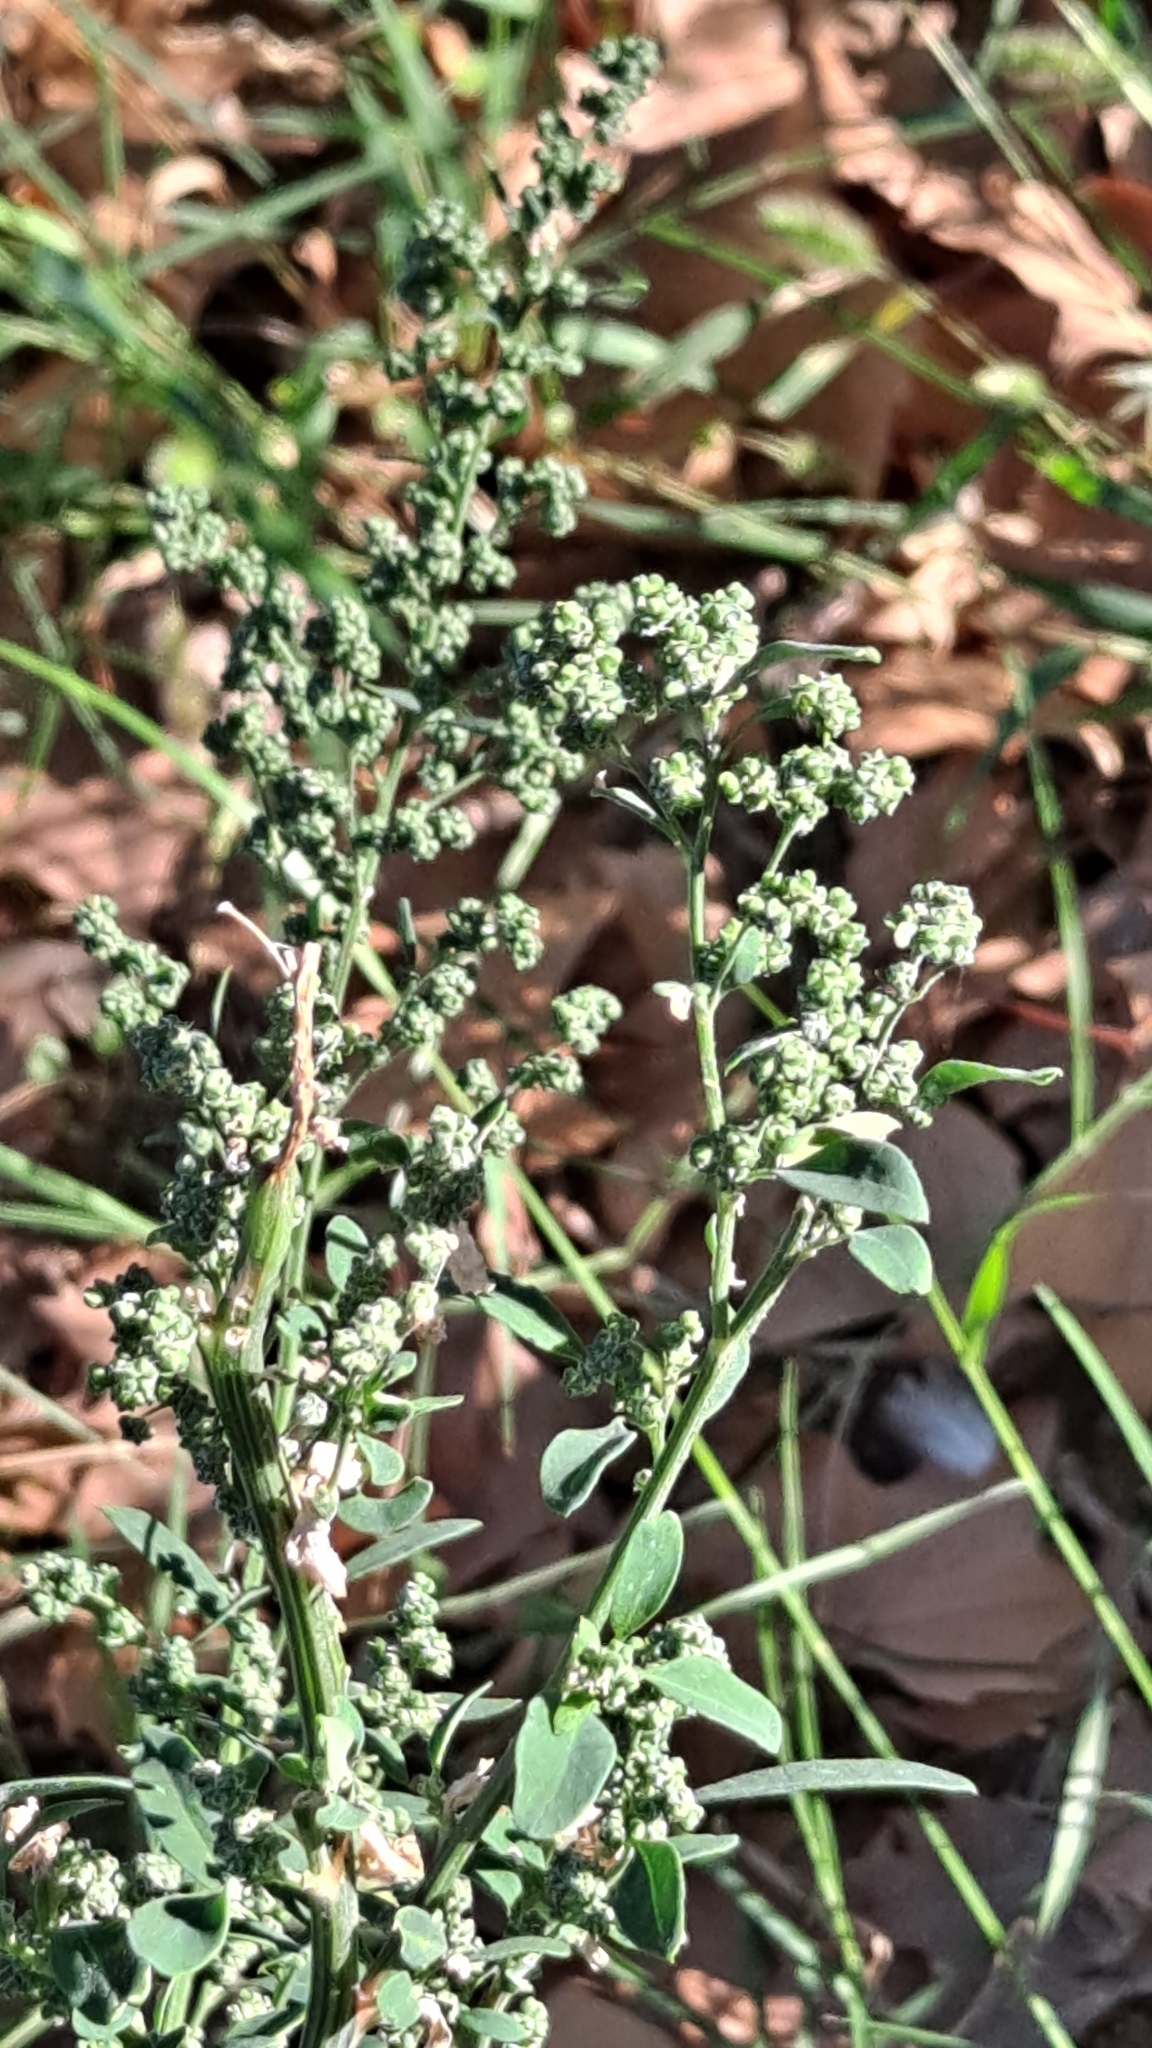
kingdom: Plantae
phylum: Tracheophyta
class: Magnoliopsida
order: Caryophyllales
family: Amaranthaceae
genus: Chenopodium
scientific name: Chenopodium album
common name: Fat-hen
